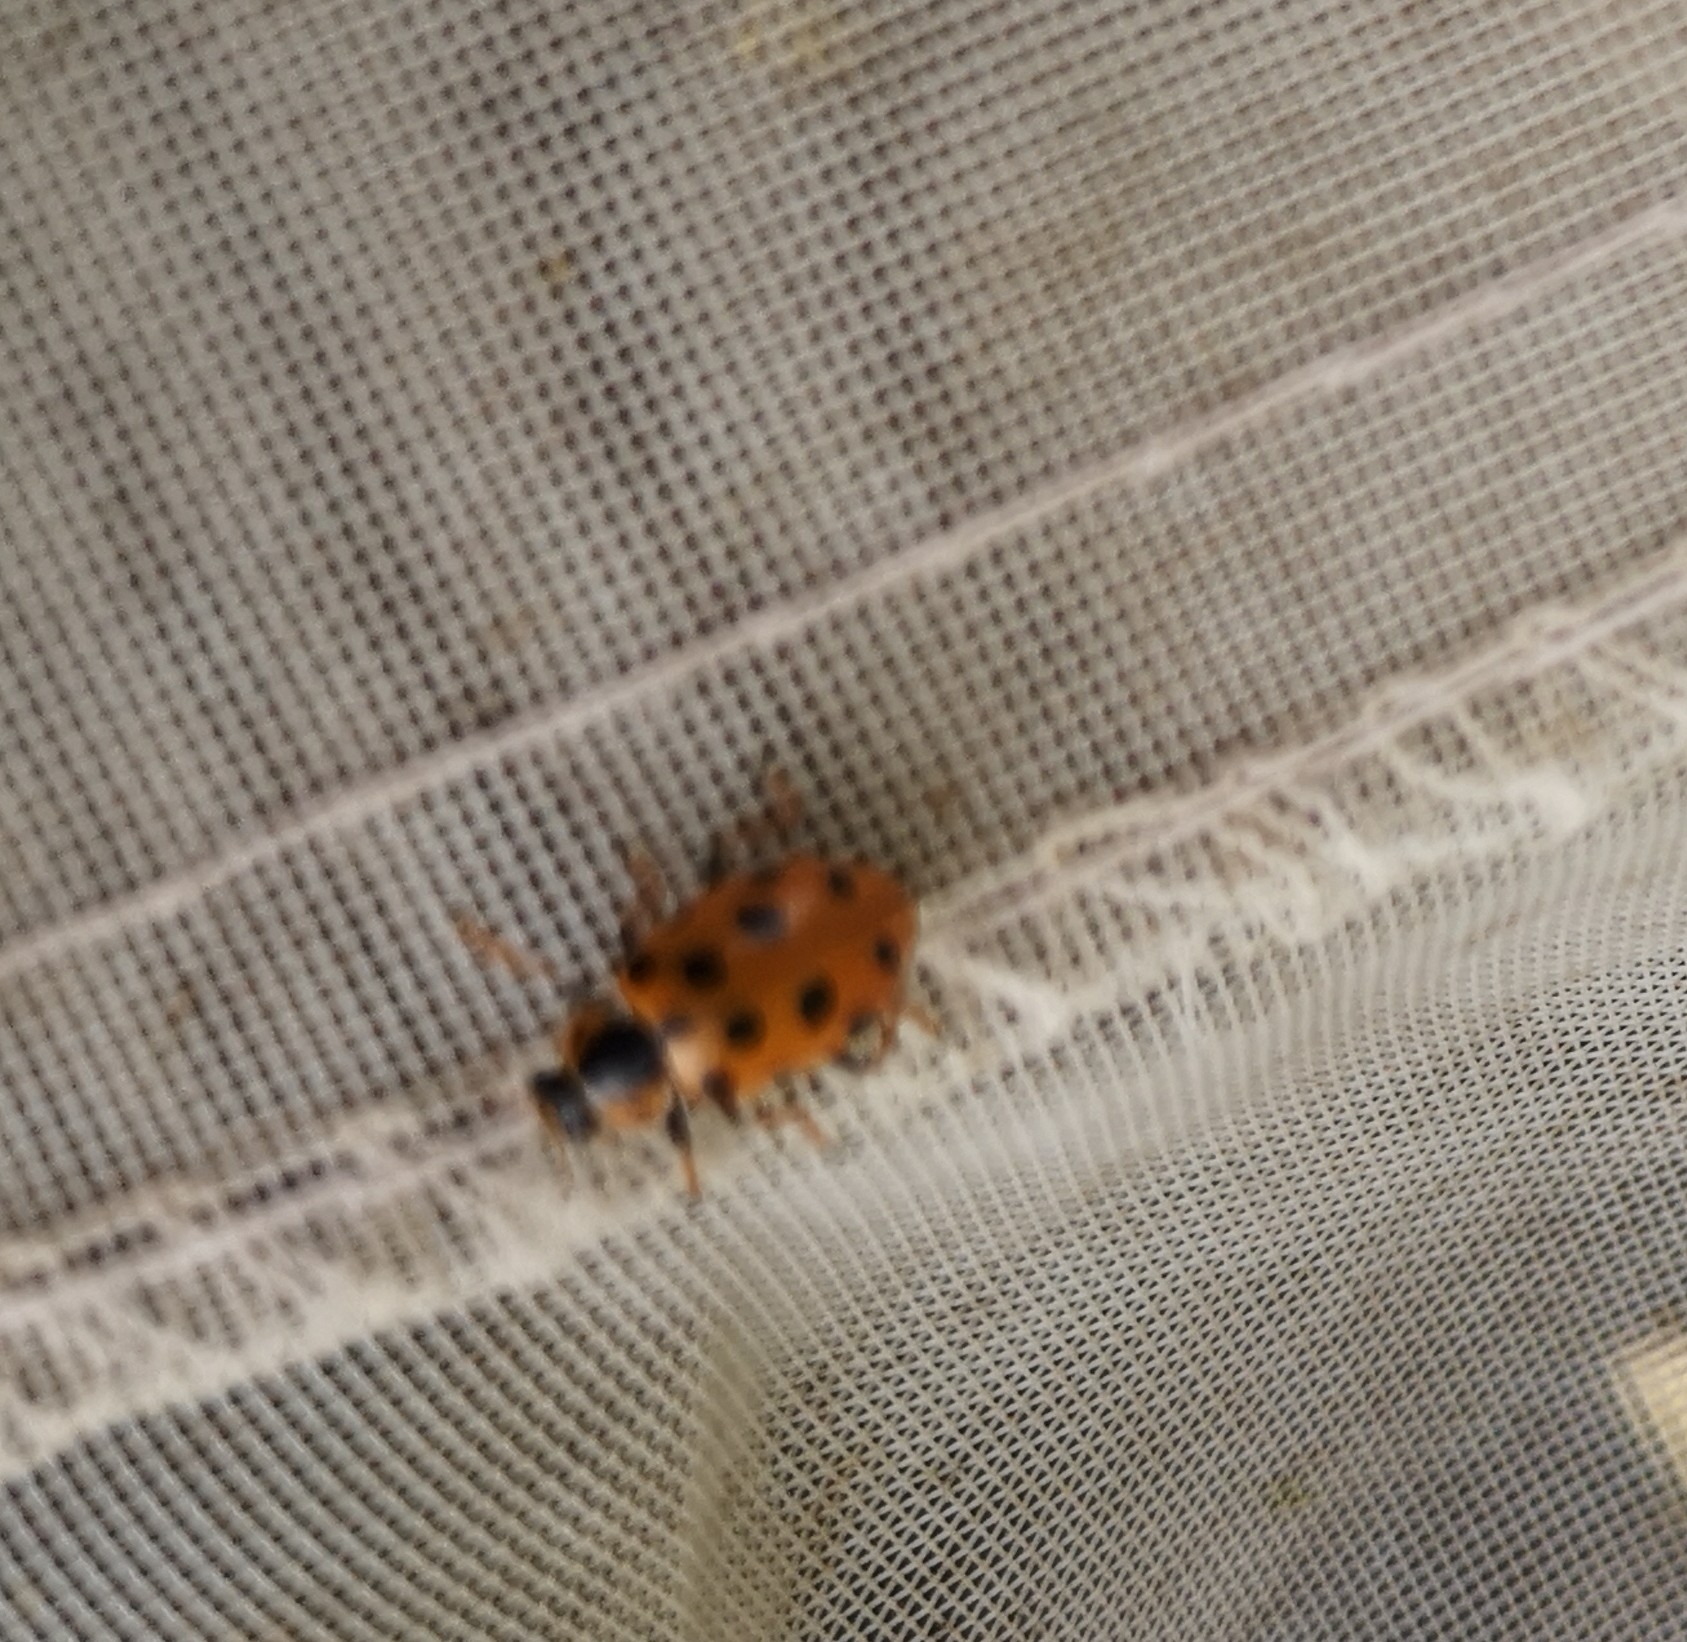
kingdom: Animalia
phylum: Arthropoda
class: Insecta
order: Coleoptera
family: Coccinellidae
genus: Hippodamia
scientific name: Hippodamia tredecimpunctata
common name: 13-spot ladybird
